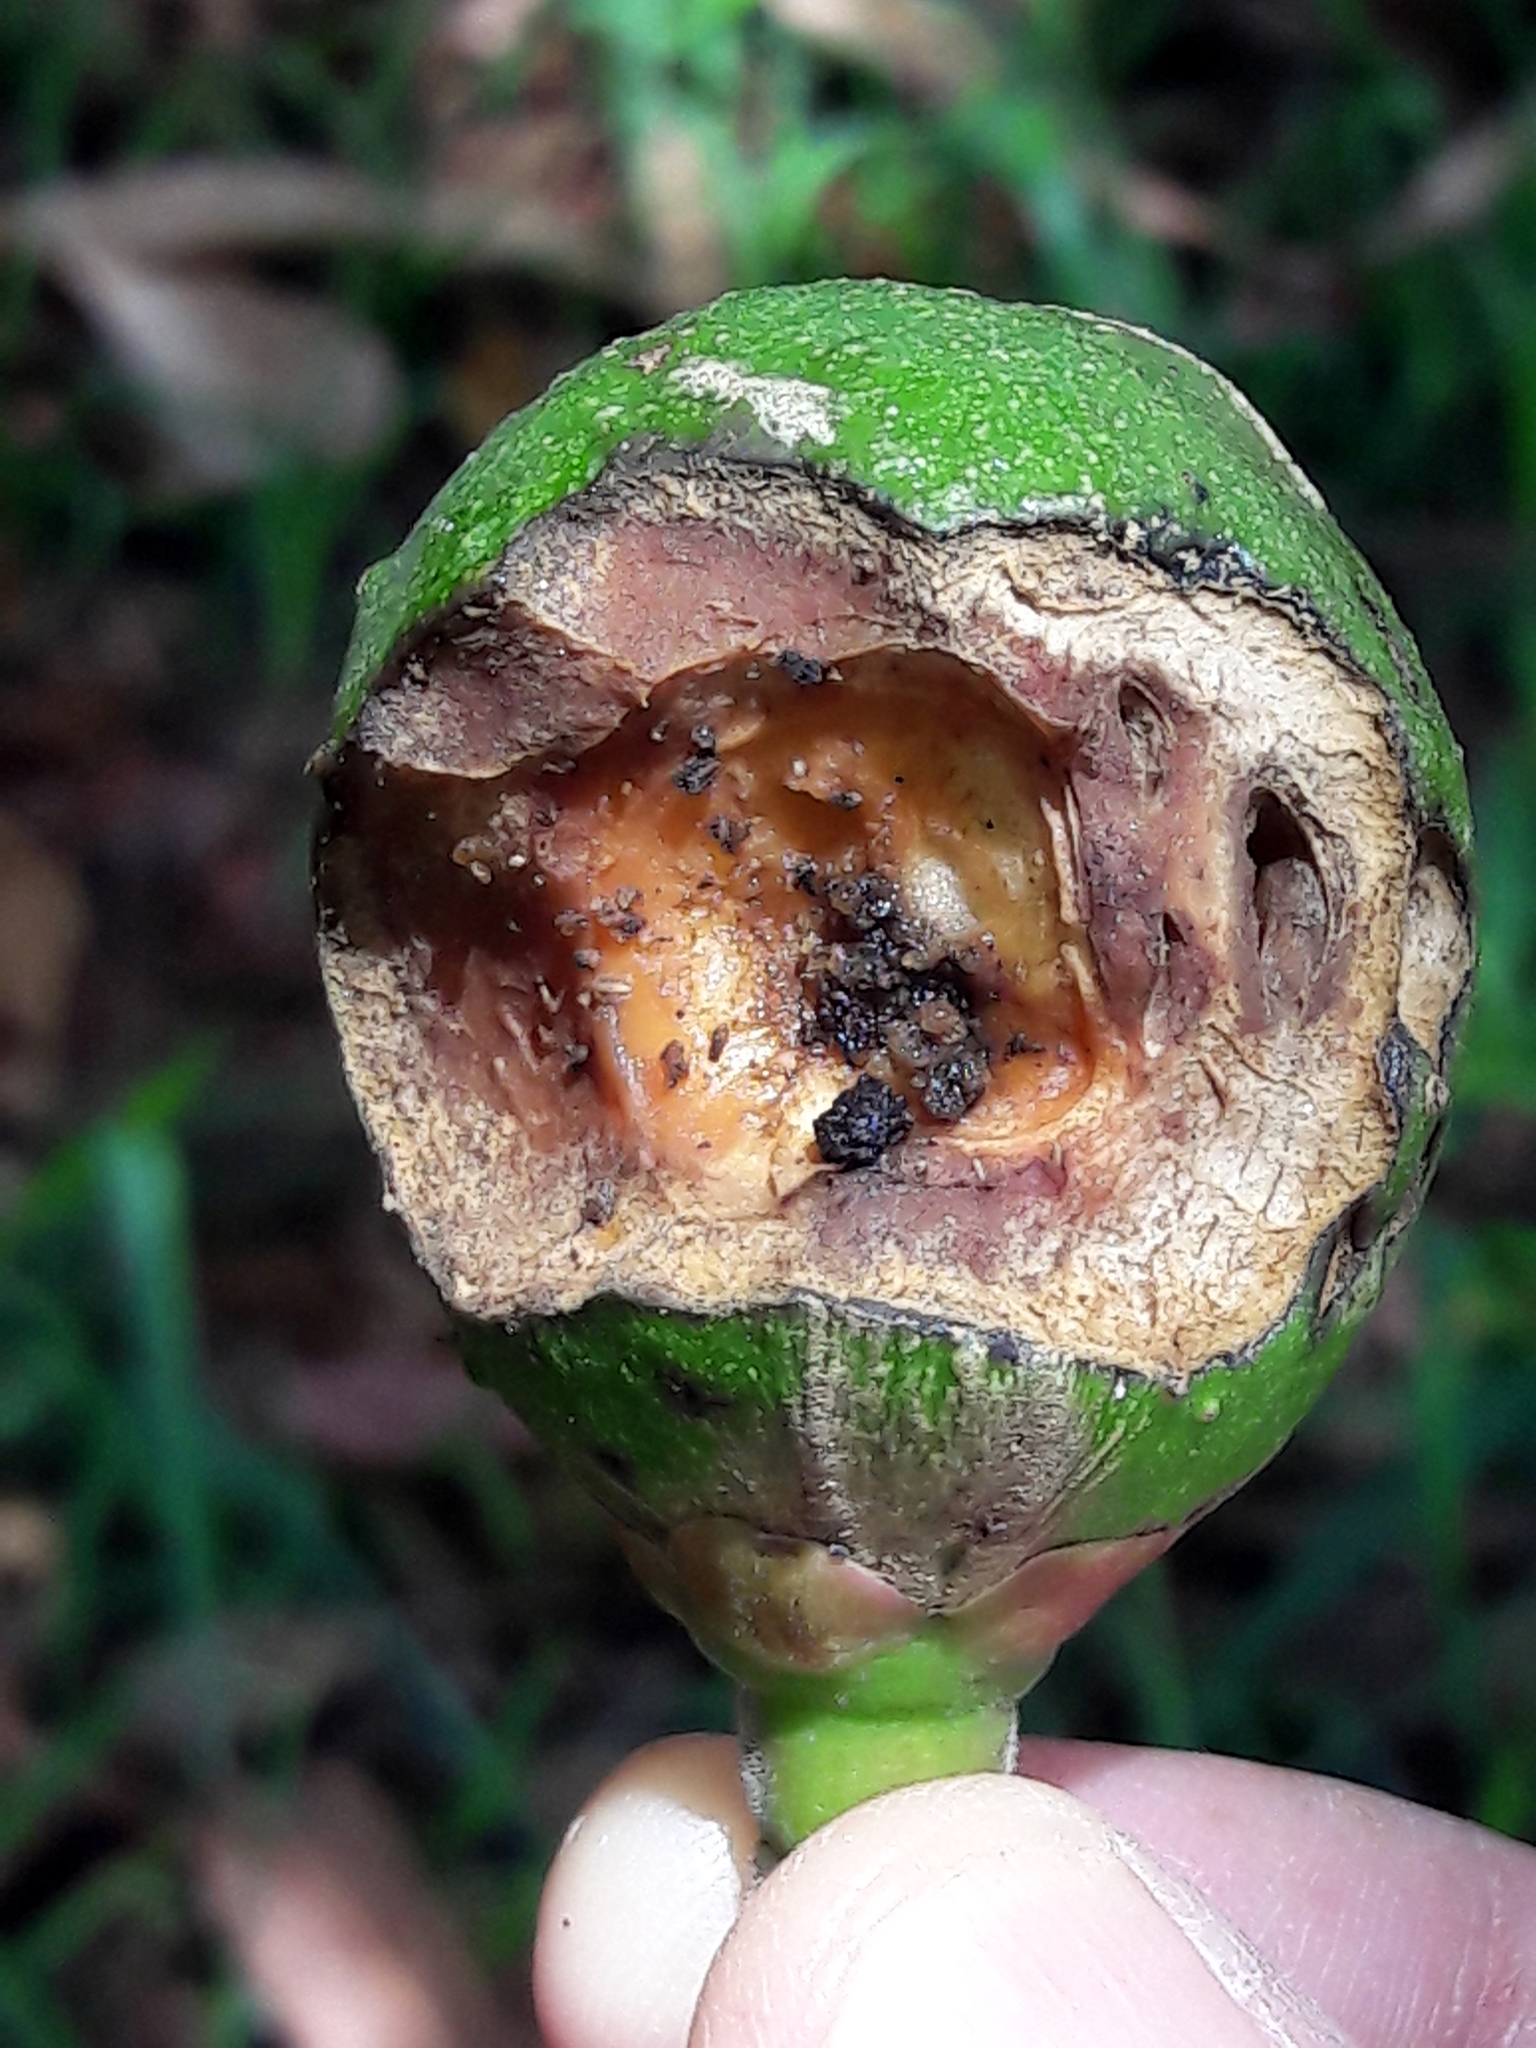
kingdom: Plantae
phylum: Tracheophyta
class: Magnoliopsida
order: Malpighiales
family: Caryocaraceae
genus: Caryocar
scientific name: Caryocar brasiliense
